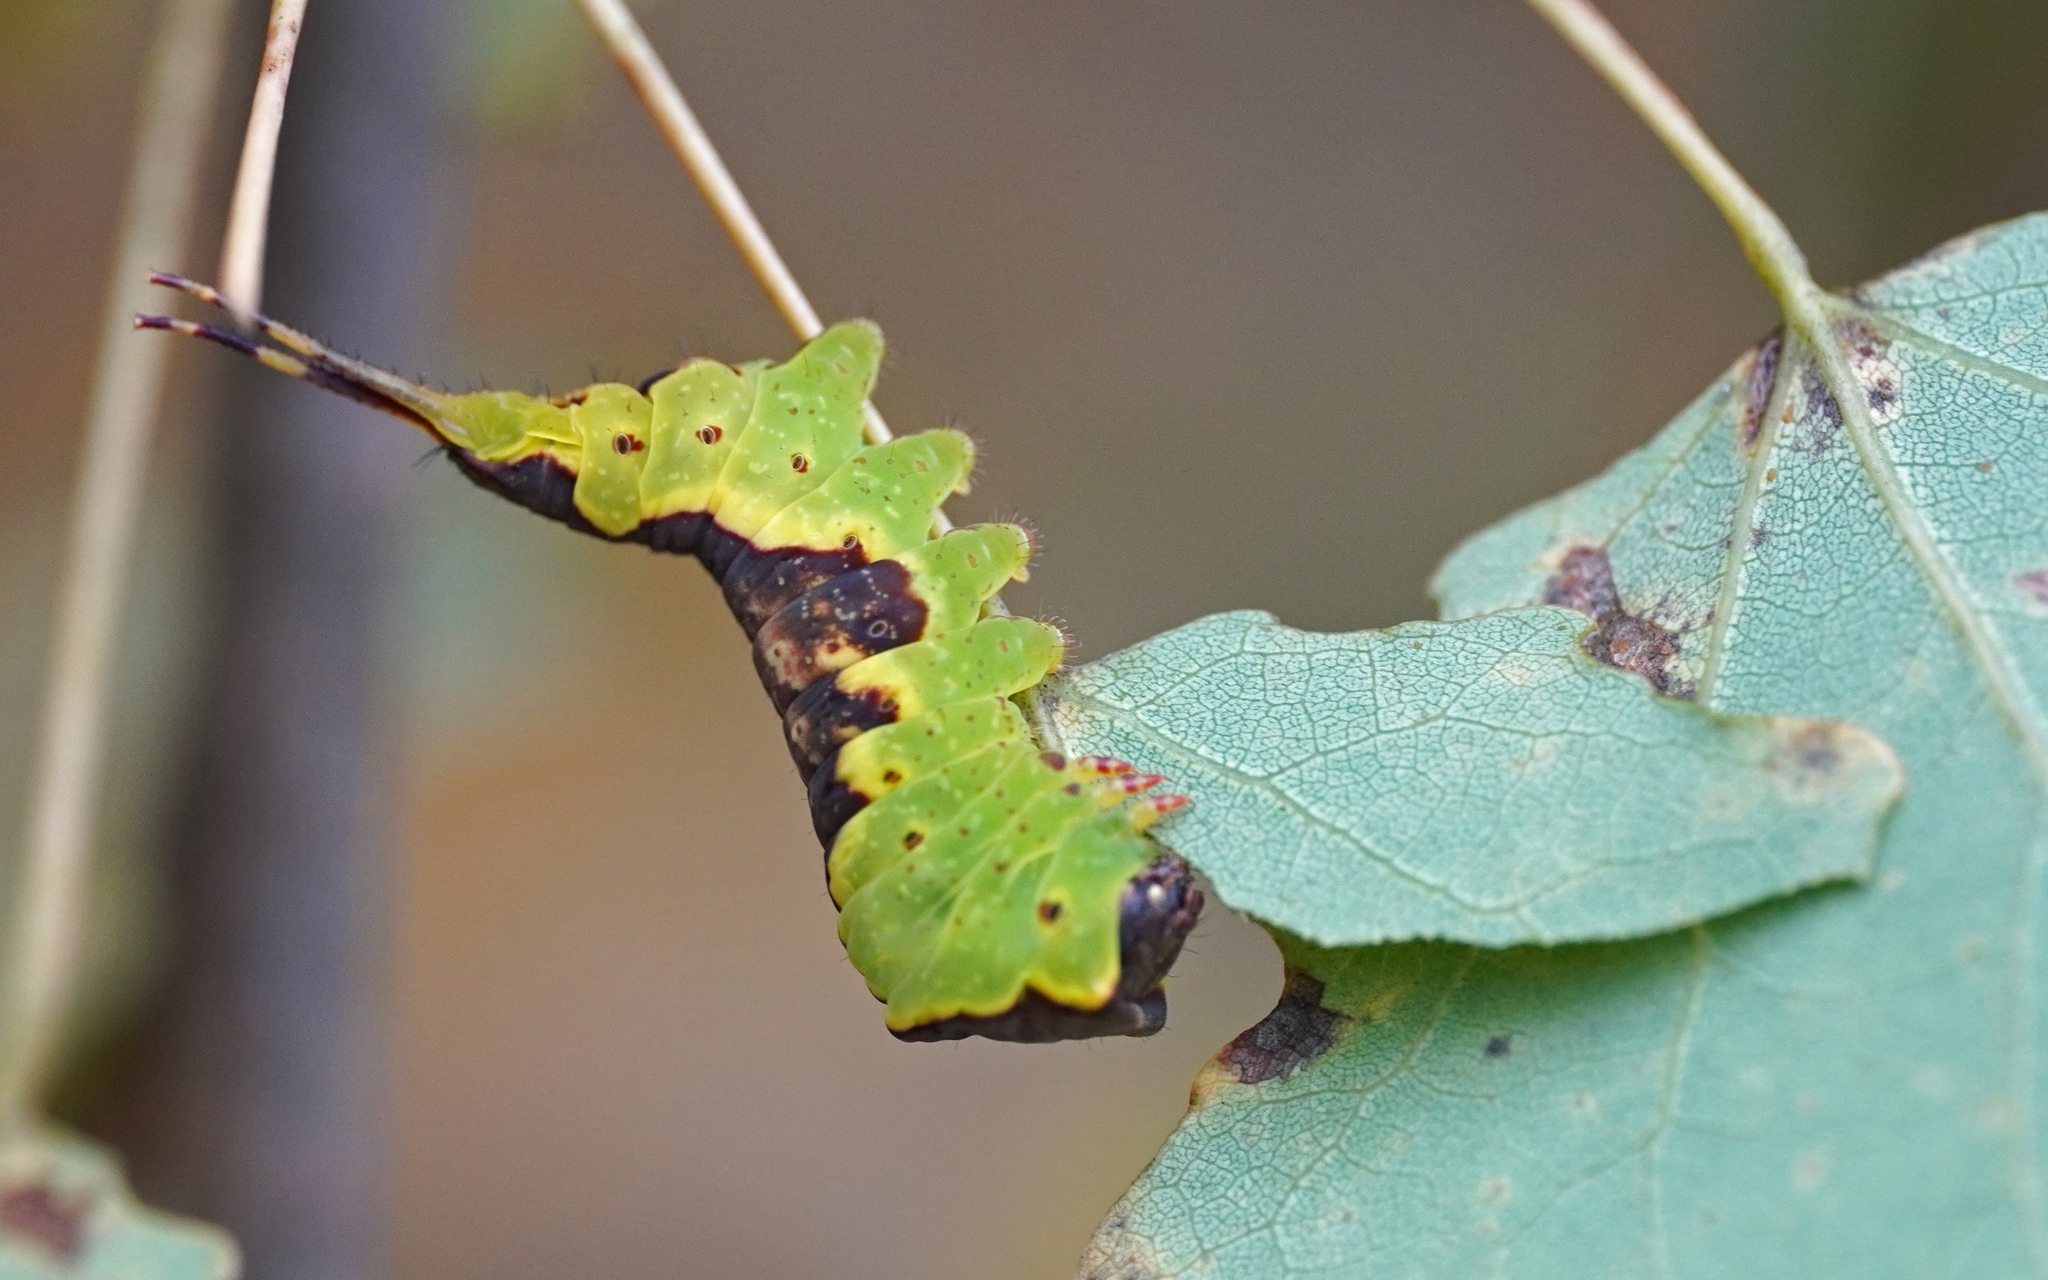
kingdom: Animalia
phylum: Arthropoda
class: Insecta
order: Lepidoptera
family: Notodontidae
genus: Furcula
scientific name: Furcula bifida
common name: Poplar kitten
